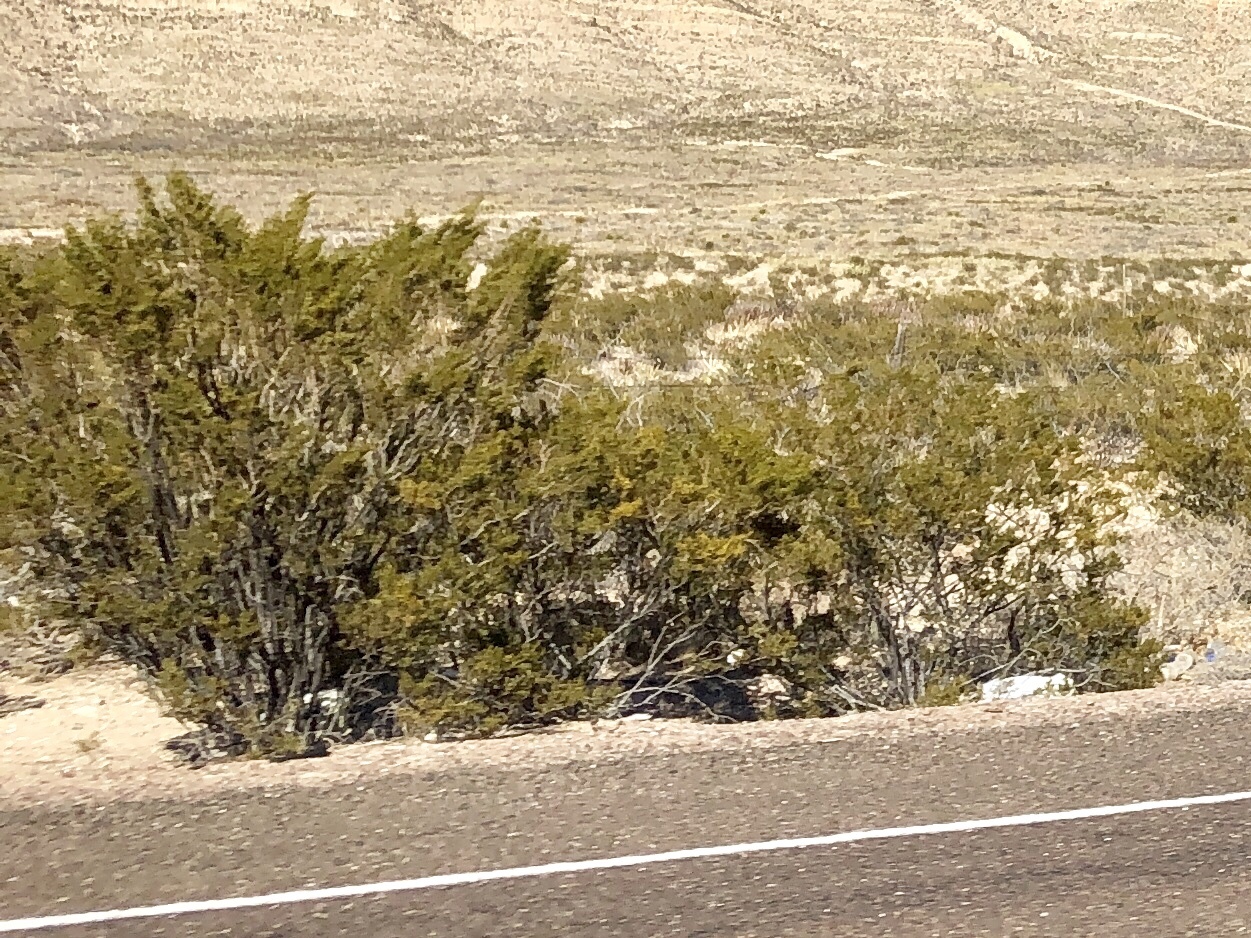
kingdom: Plantae
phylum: Tracheophyta
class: Magnoliopsida
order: Zygophyllales
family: Zygophyllaceae
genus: Larrea
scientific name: Larrea tridentata
